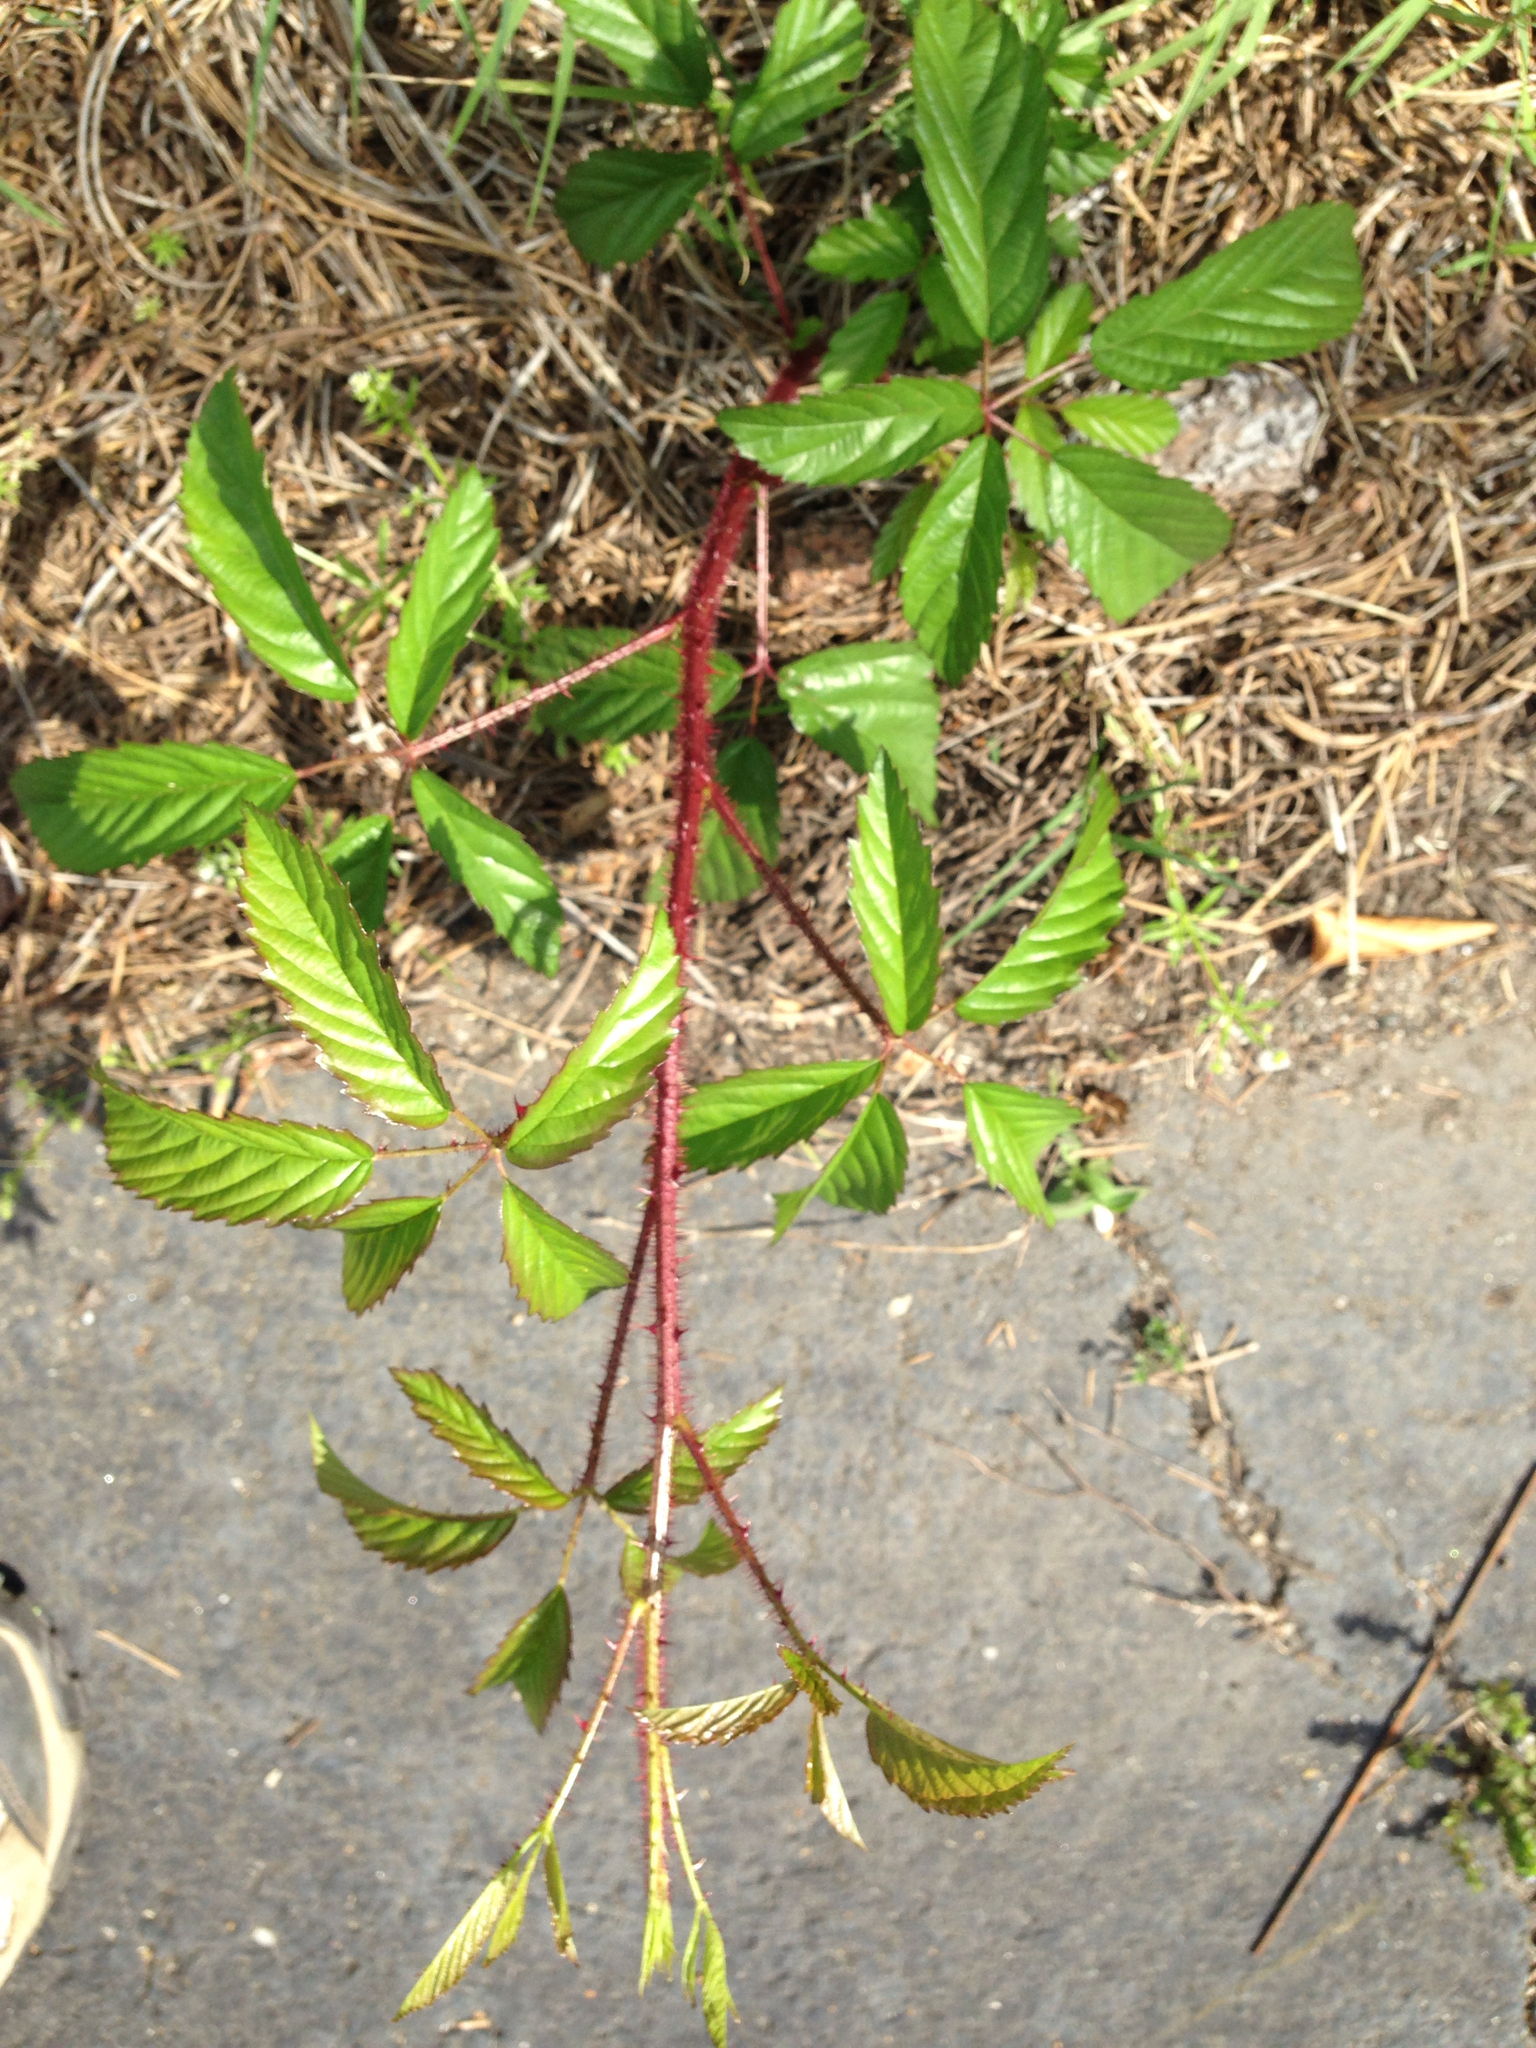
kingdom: Plantae
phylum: Tracheophyta
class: Magnoliopsida
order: Rosales
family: Rosaceae
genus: Rubus
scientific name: Rubus trivialis
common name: Southern dewberry
